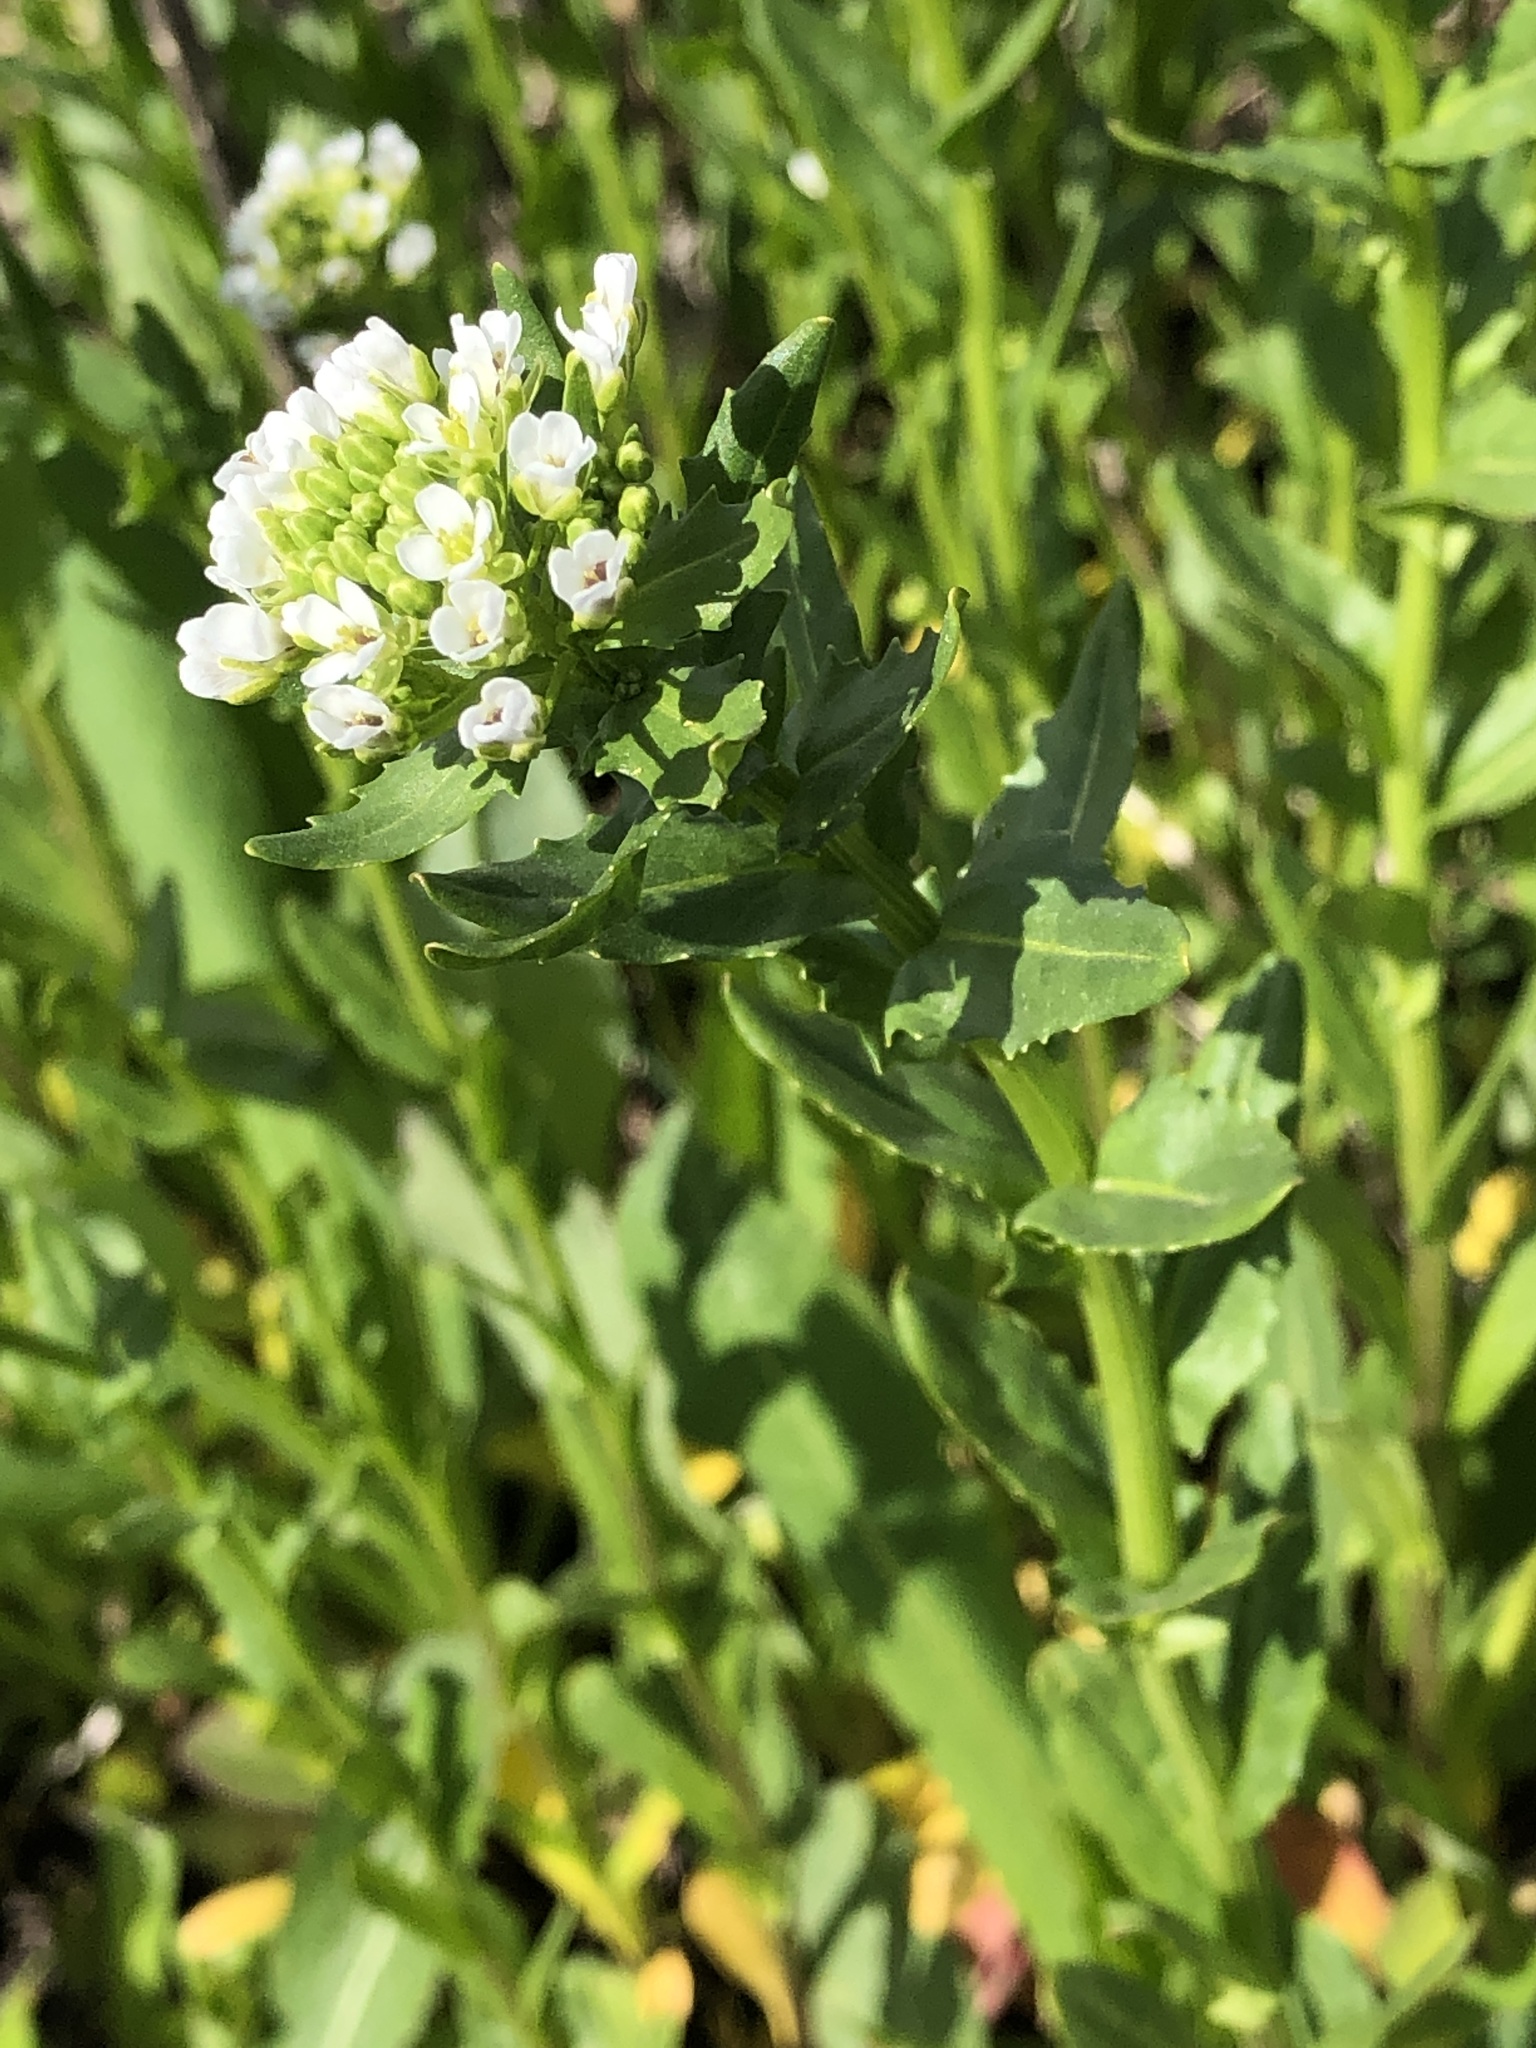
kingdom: Plantae
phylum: Tracheophyta
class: Magnoliopsida
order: Brassicales
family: Brassicaceae
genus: Thlaspi
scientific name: Thlaspi arvense
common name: Field pennycress
